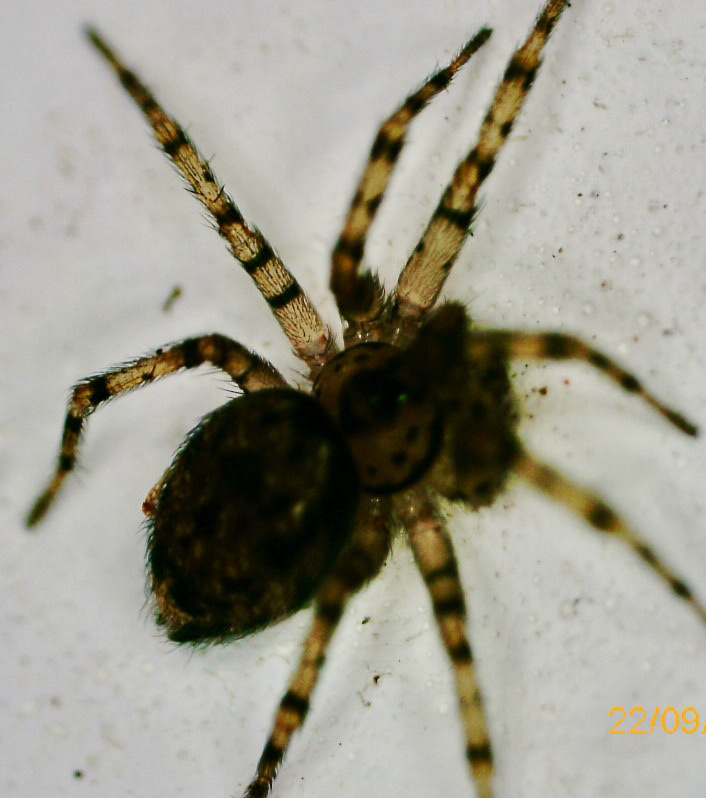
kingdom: Animalia
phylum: Arthropoda
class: Arachnida
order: Araneae
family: Oecobiidae
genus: Oecobius
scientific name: Oecobius navus
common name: Flatmesh weaver
